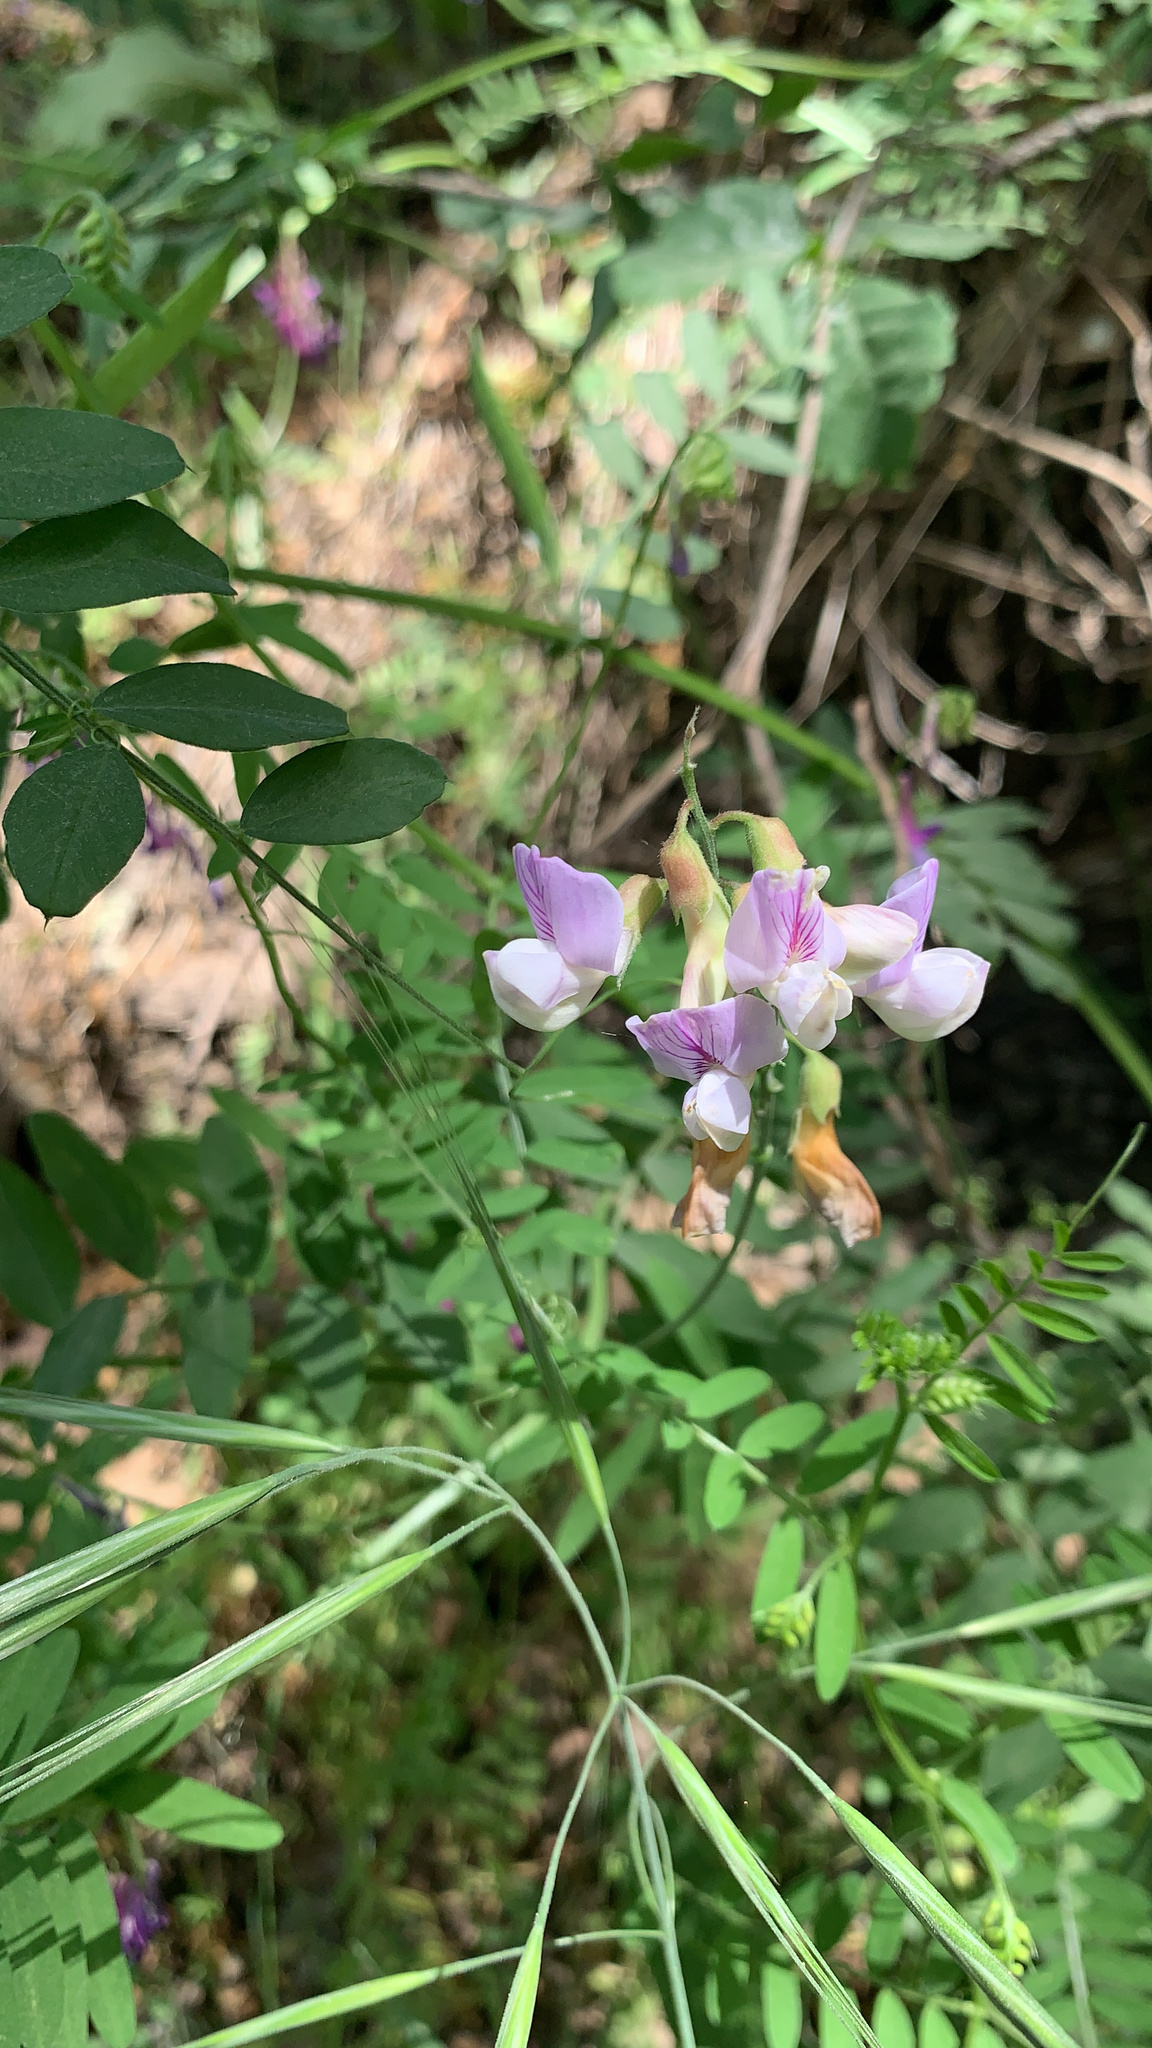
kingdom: Plantae
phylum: Tracheophyta
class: Magnoliopsida
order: Fabales
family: Fabaceae
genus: Lathyrus
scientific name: Lathyrus vestitus
